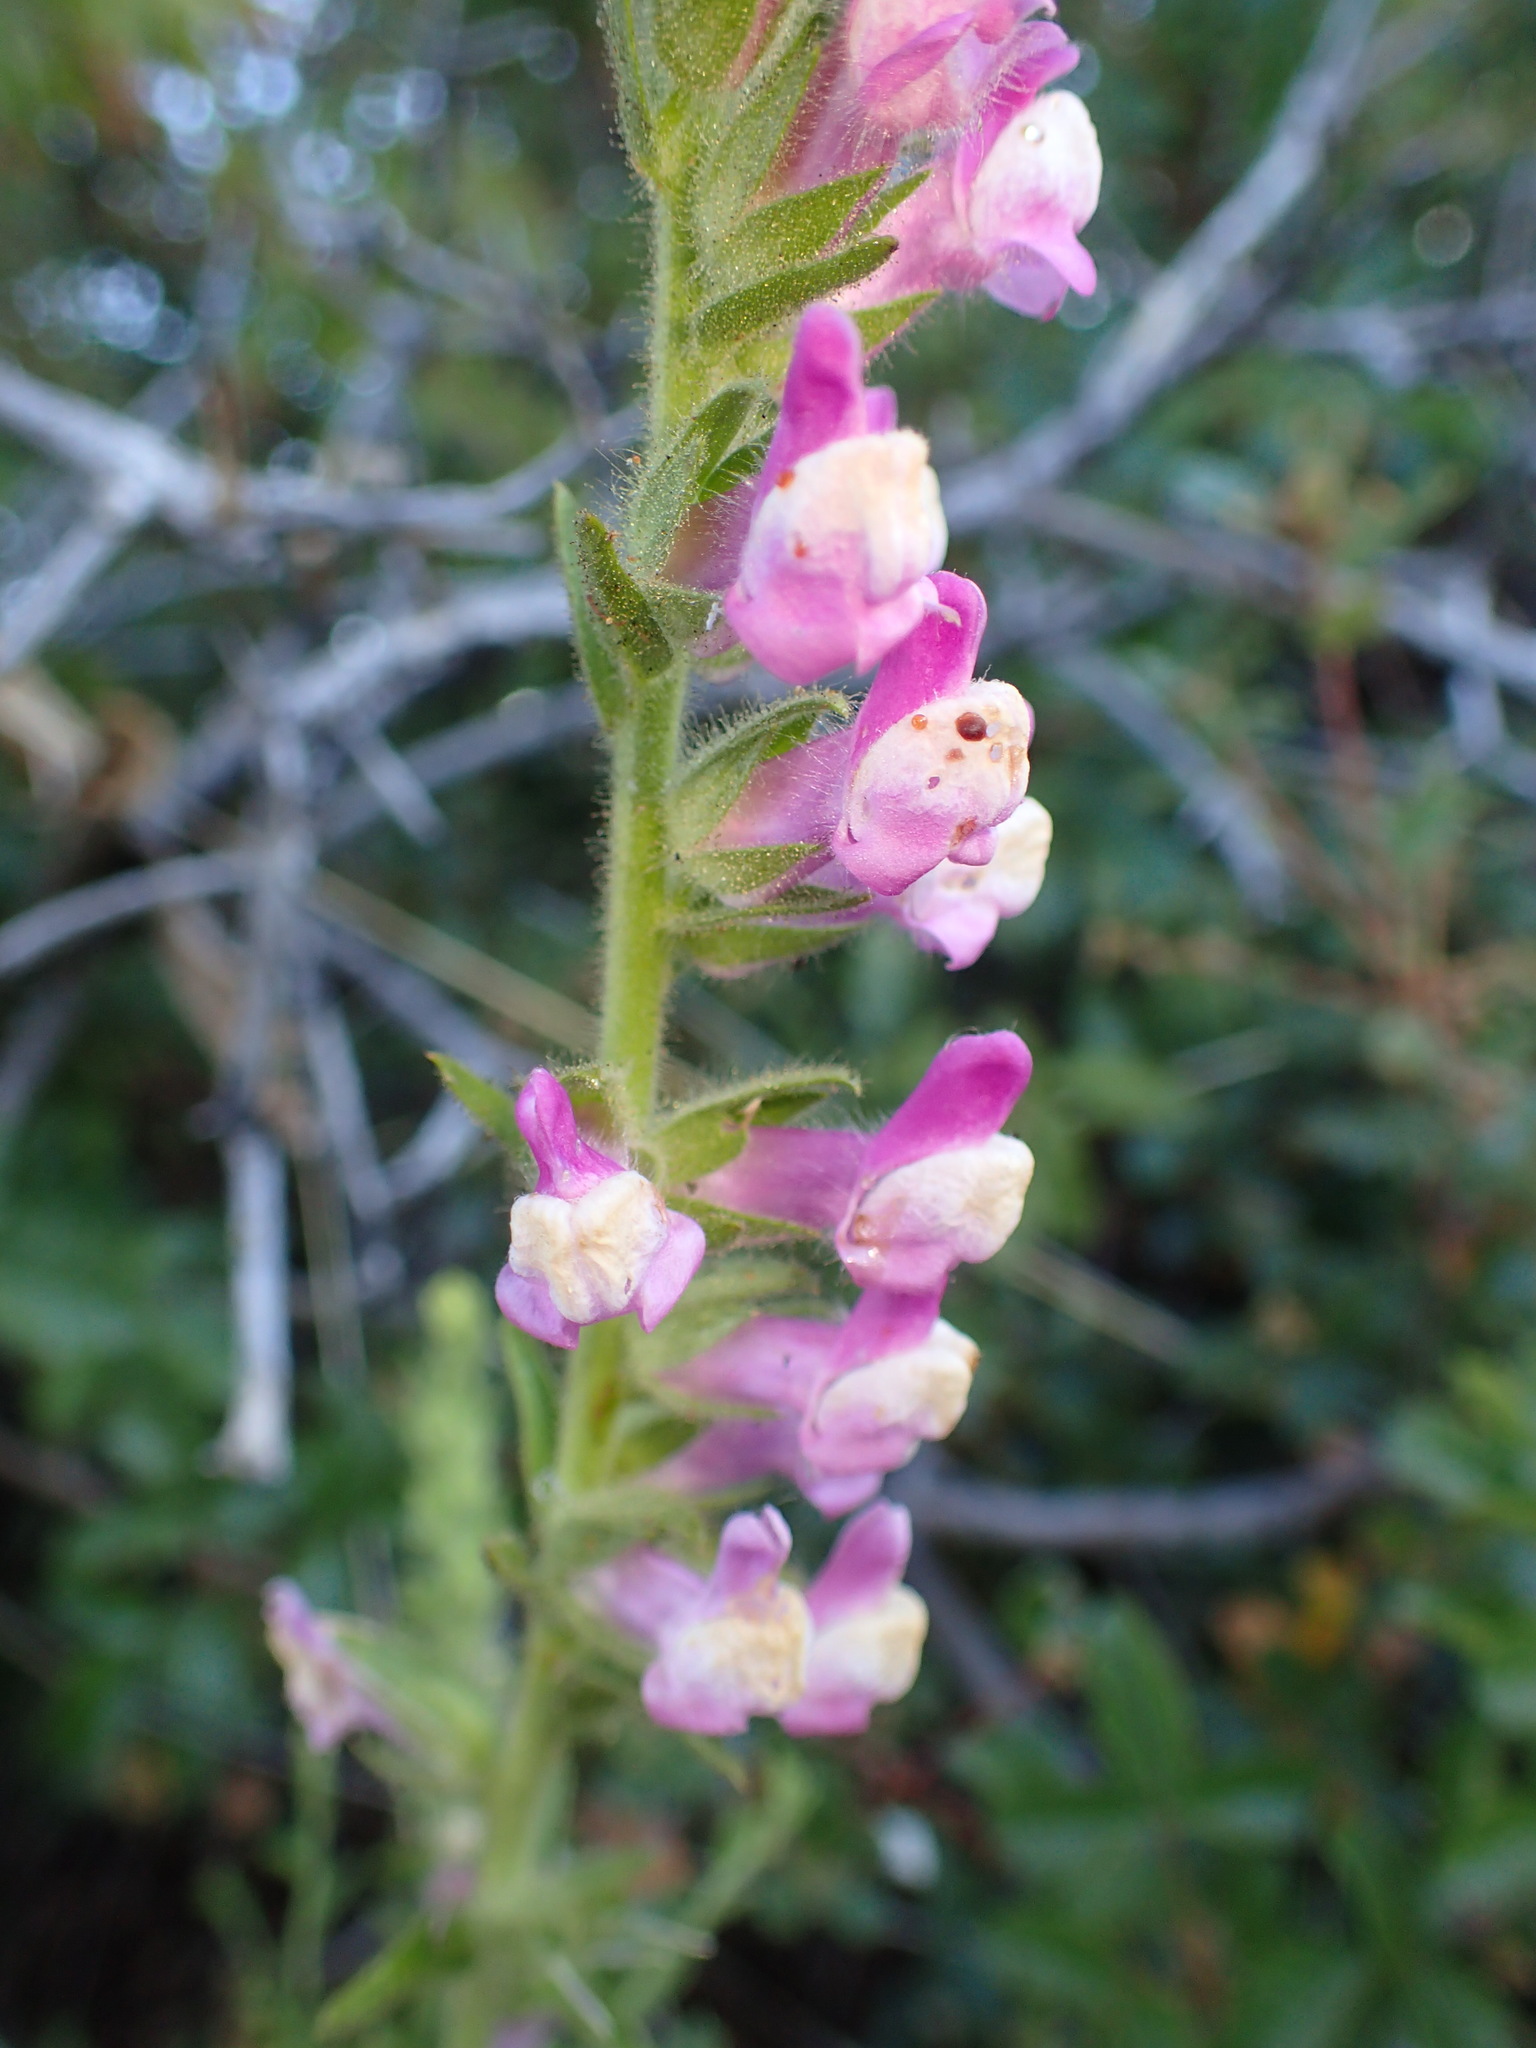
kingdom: Plantae
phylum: Tracheophyta
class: Magnoliopsida
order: Lamiales
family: Plantaginaceae
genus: Sairocarpus
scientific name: Sairocarpus multiflorus
